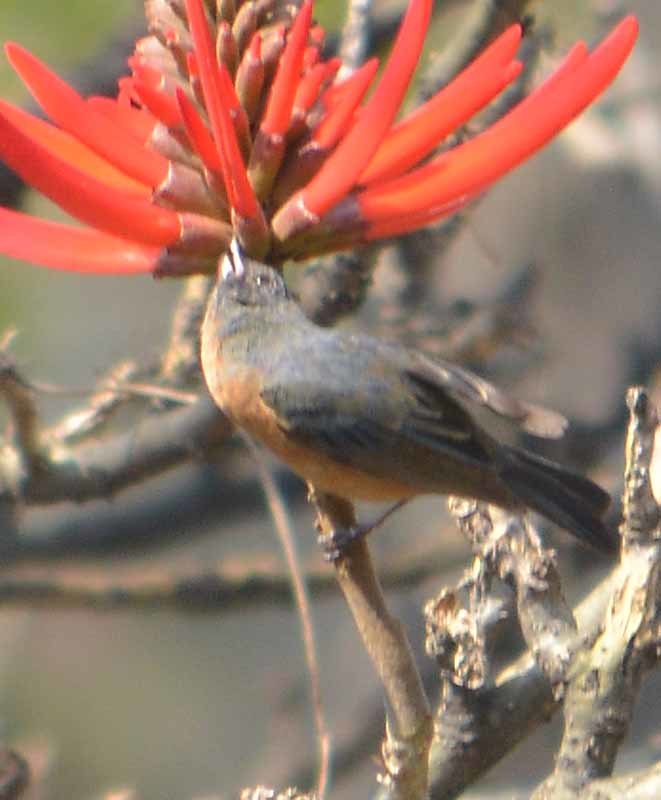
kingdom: Animalia
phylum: Chordata
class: Aves
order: Passeriformes
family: Thraupidae
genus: Diglossa
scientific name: Diglossa baritula
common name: Cinnamon-bellied flowerpiercer
